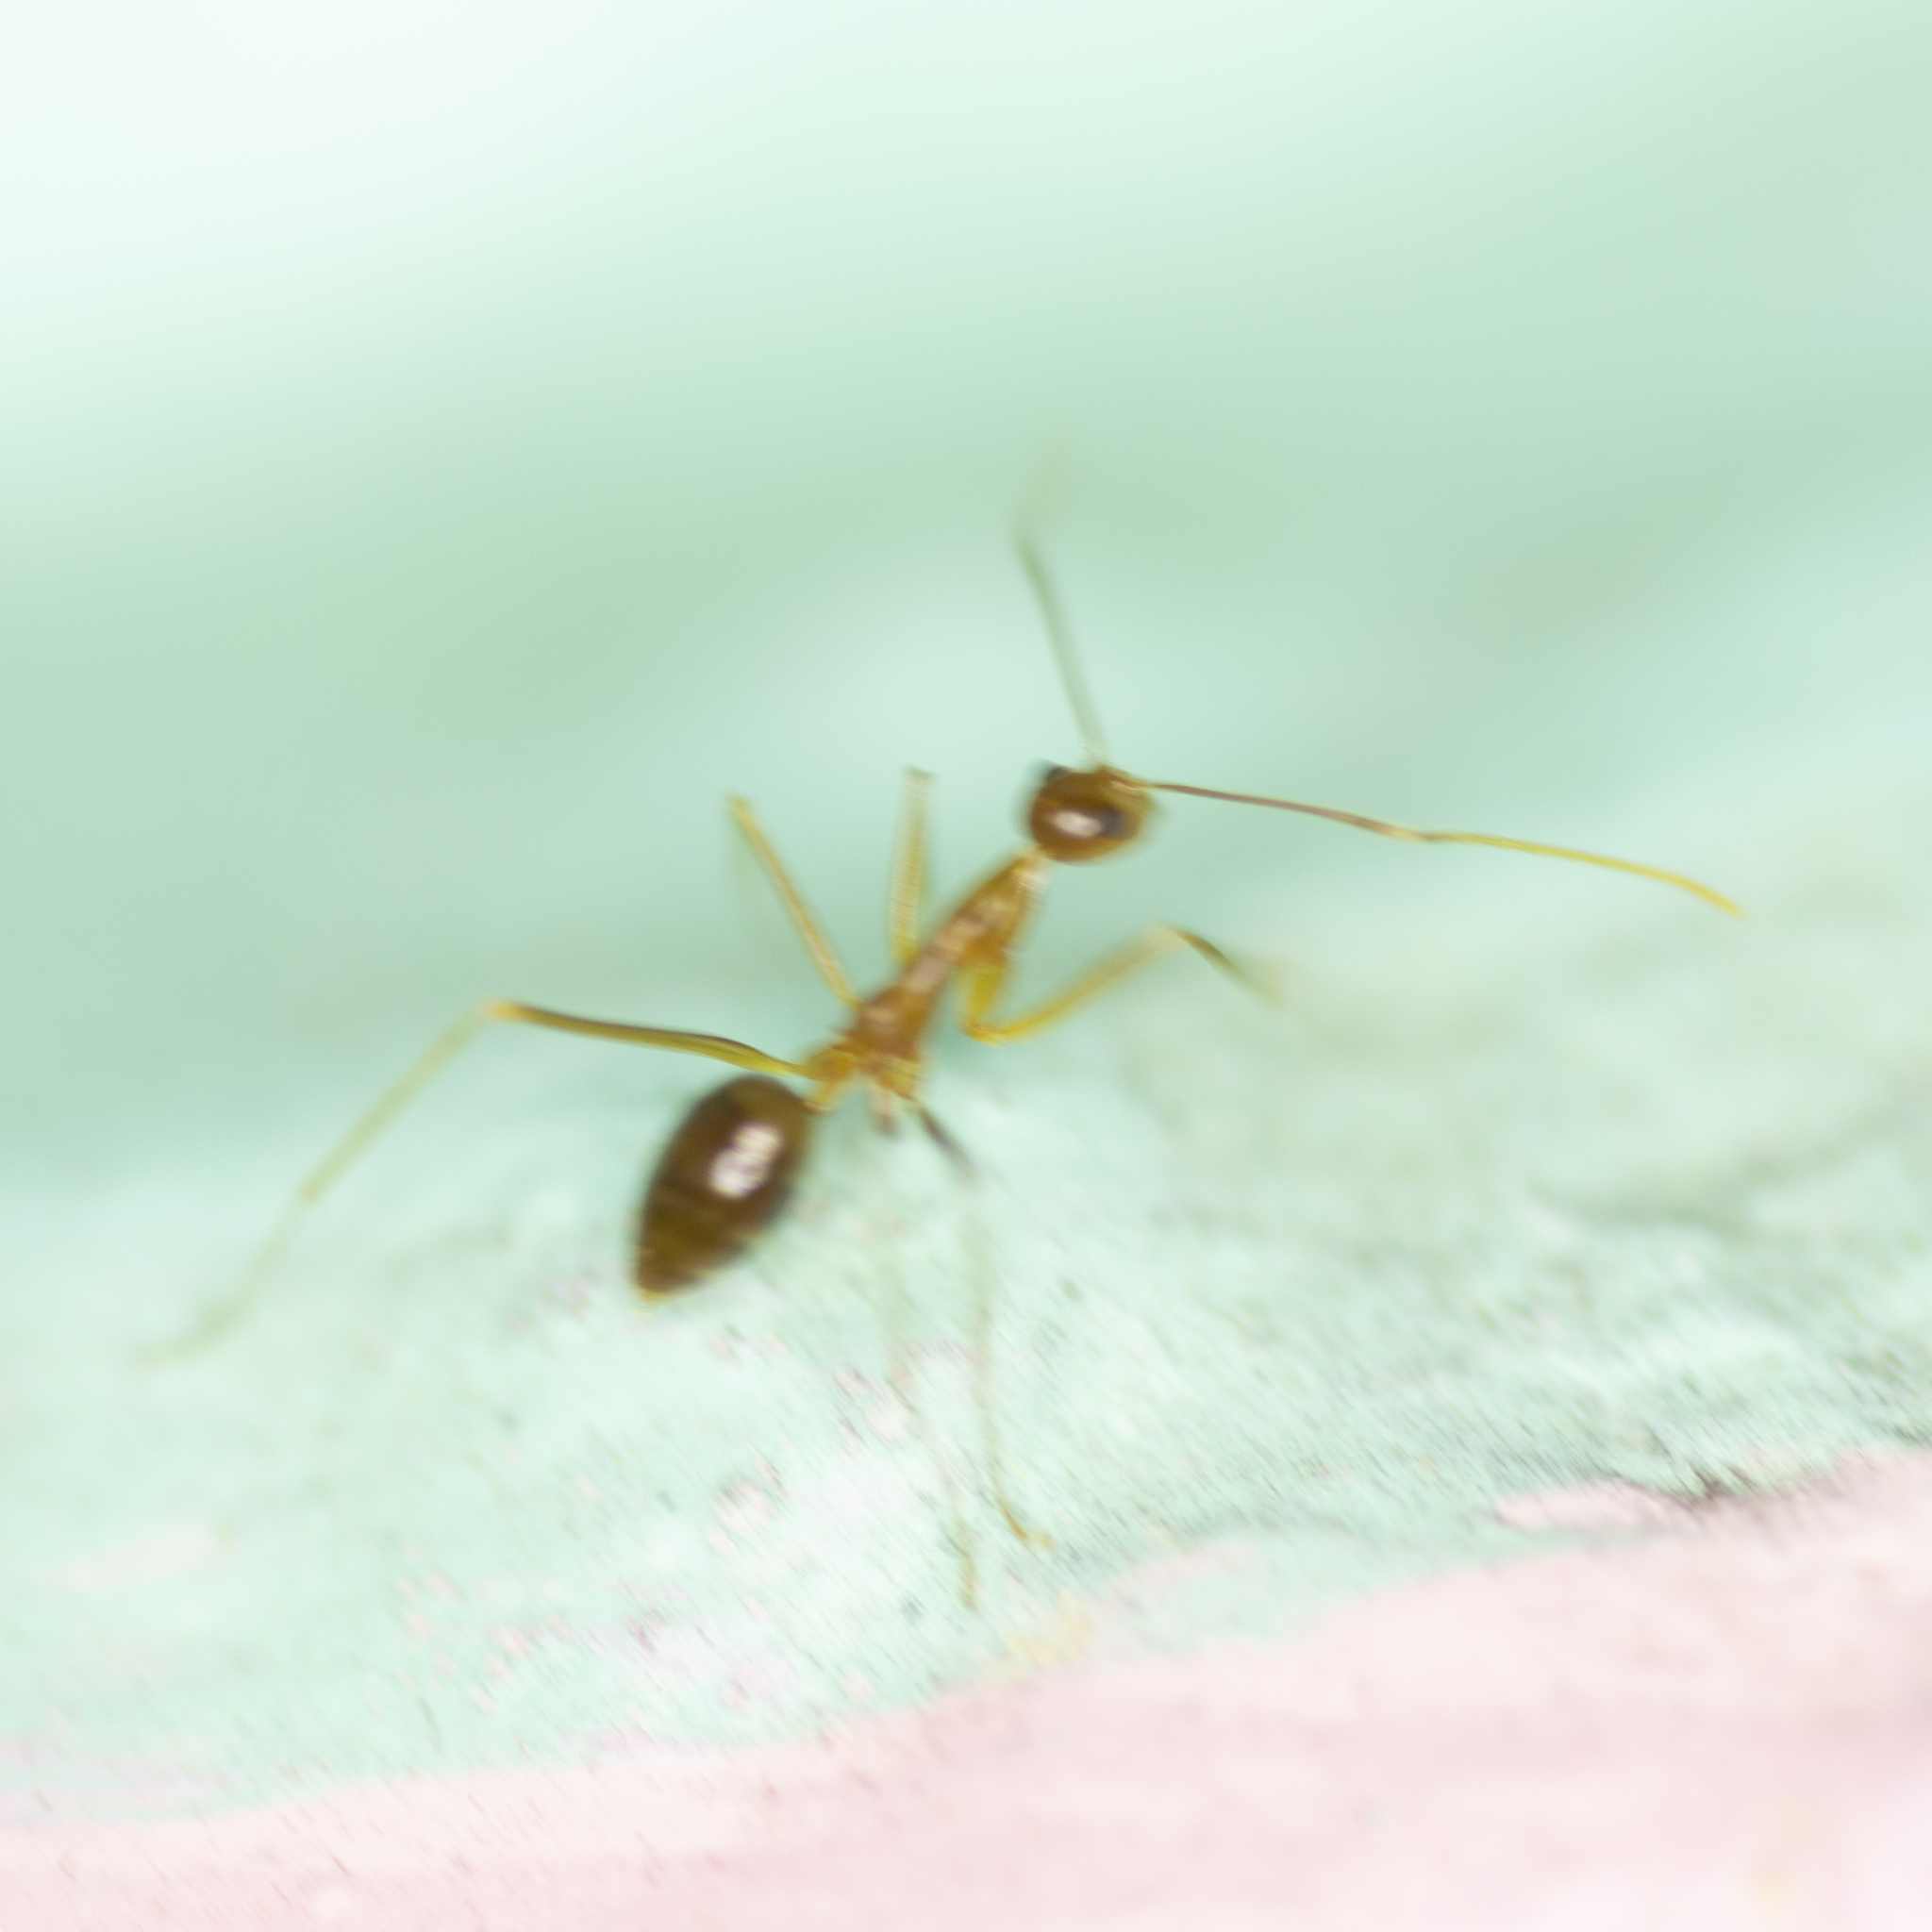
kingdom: Animalia
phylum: Arthropoda
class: Insecta
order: Hymenoptera
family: Formicidae
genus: Anoplolepis
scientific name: Anoplolepis gracilipes
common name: Ant
